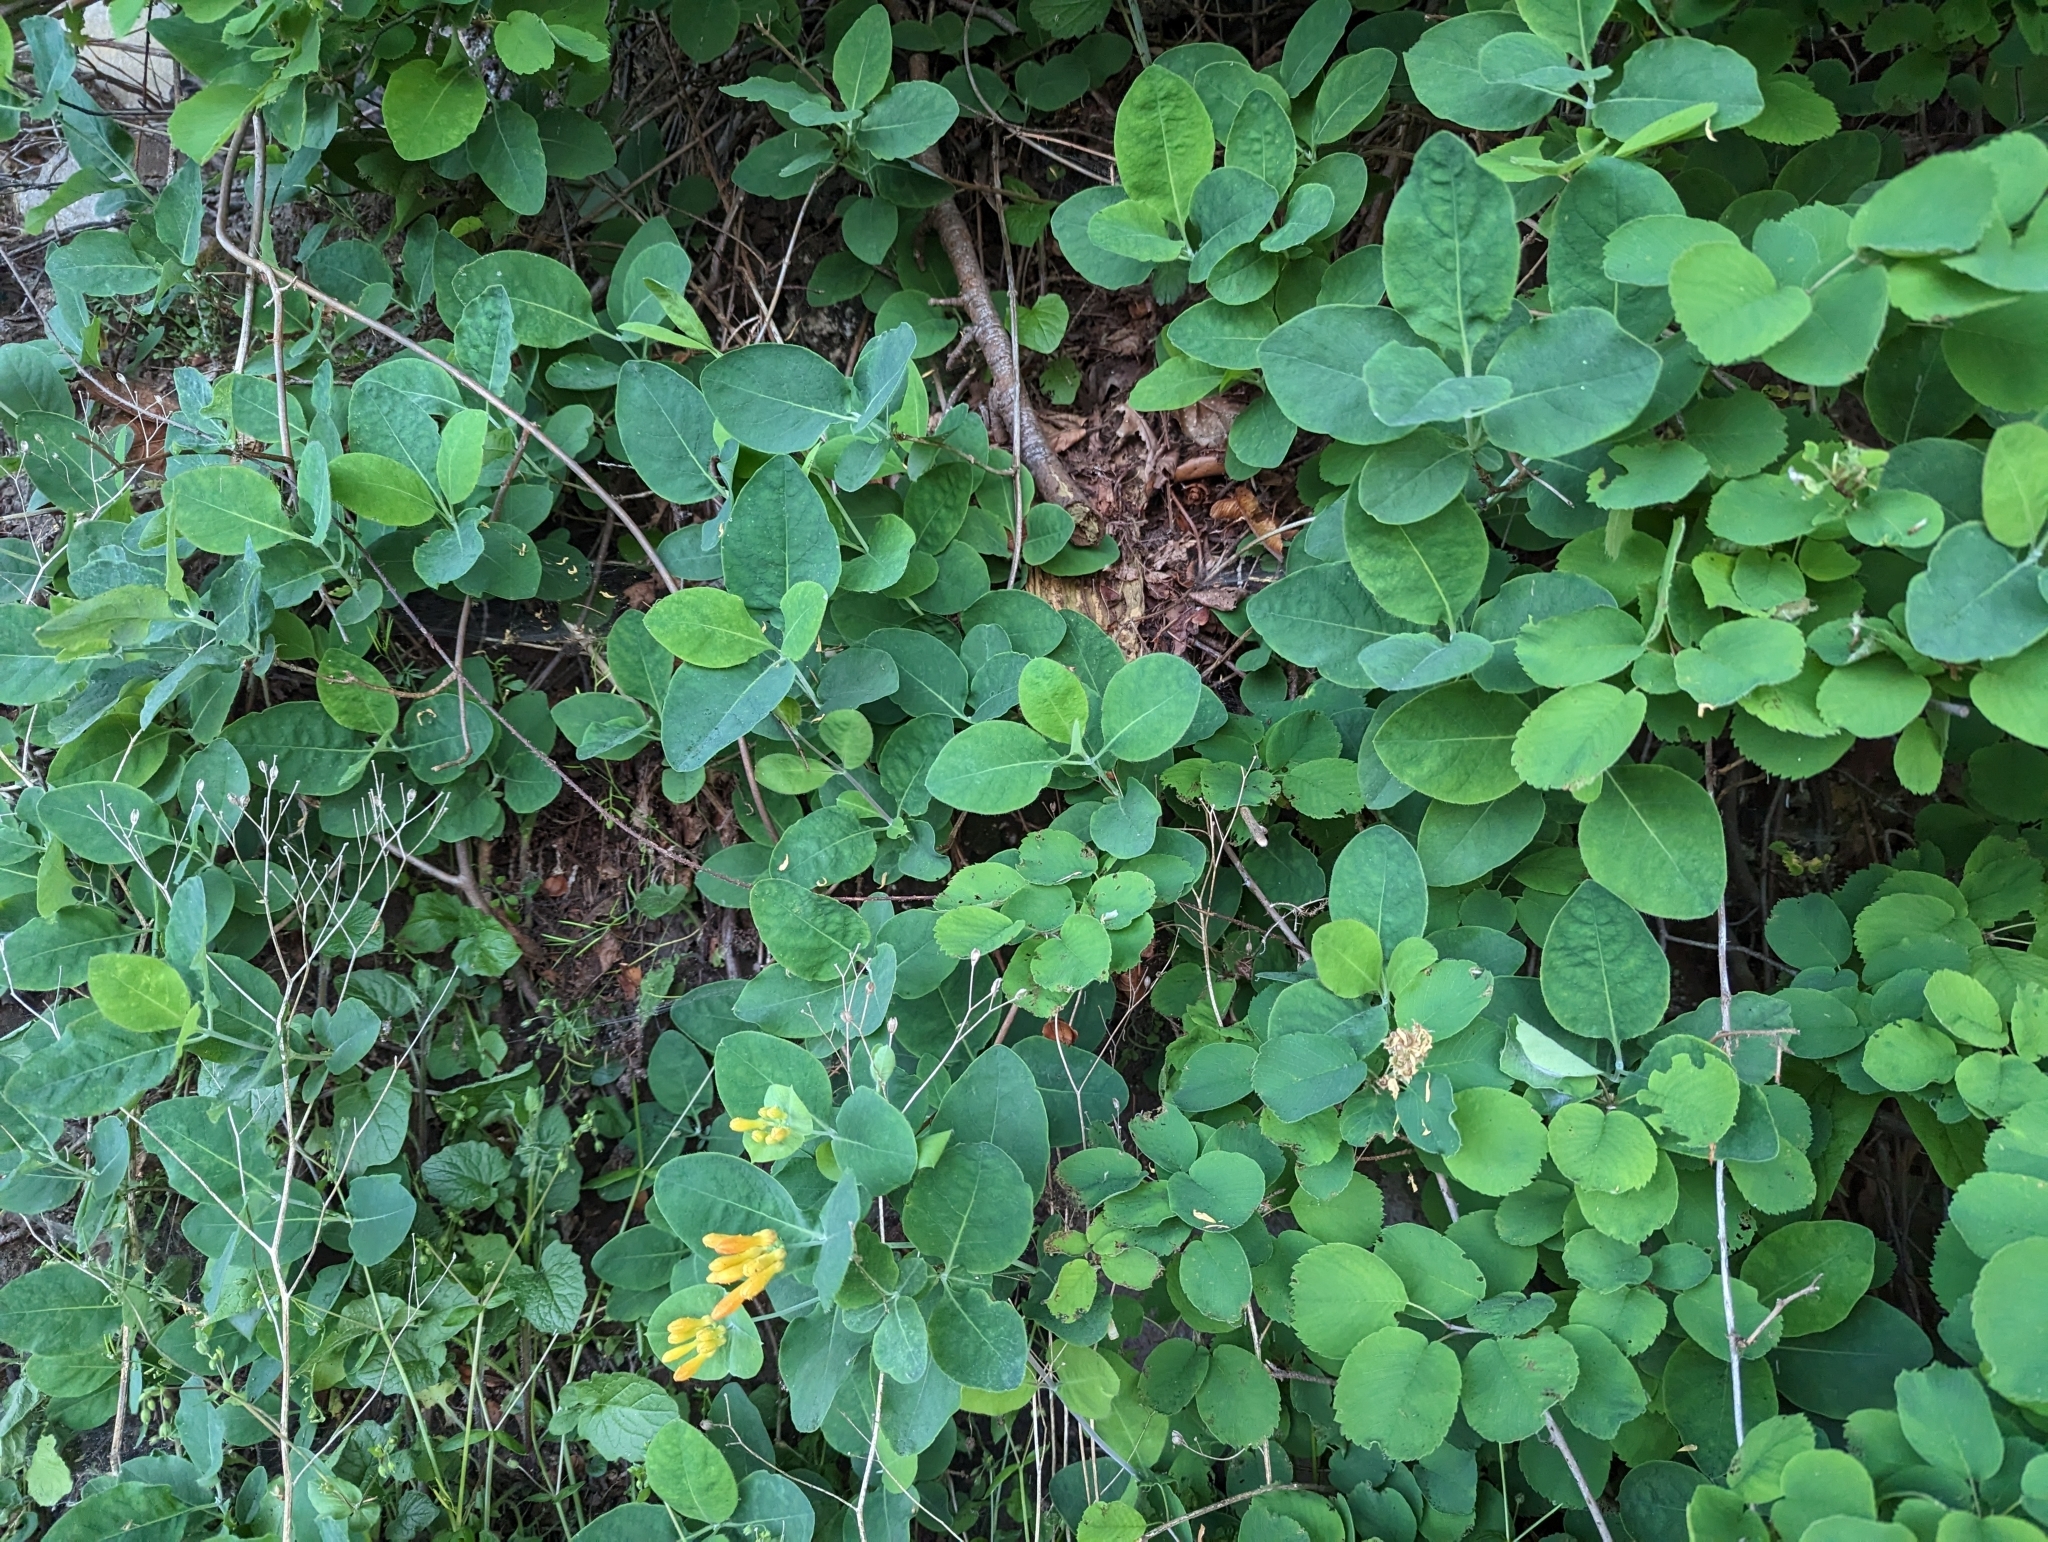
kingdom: Plantae
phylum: Tracheophyta
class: Magnoliopsida
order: Dipsacales
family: Caprifoliaceae
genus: Lonicera
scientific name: Lonicera ciliosa
